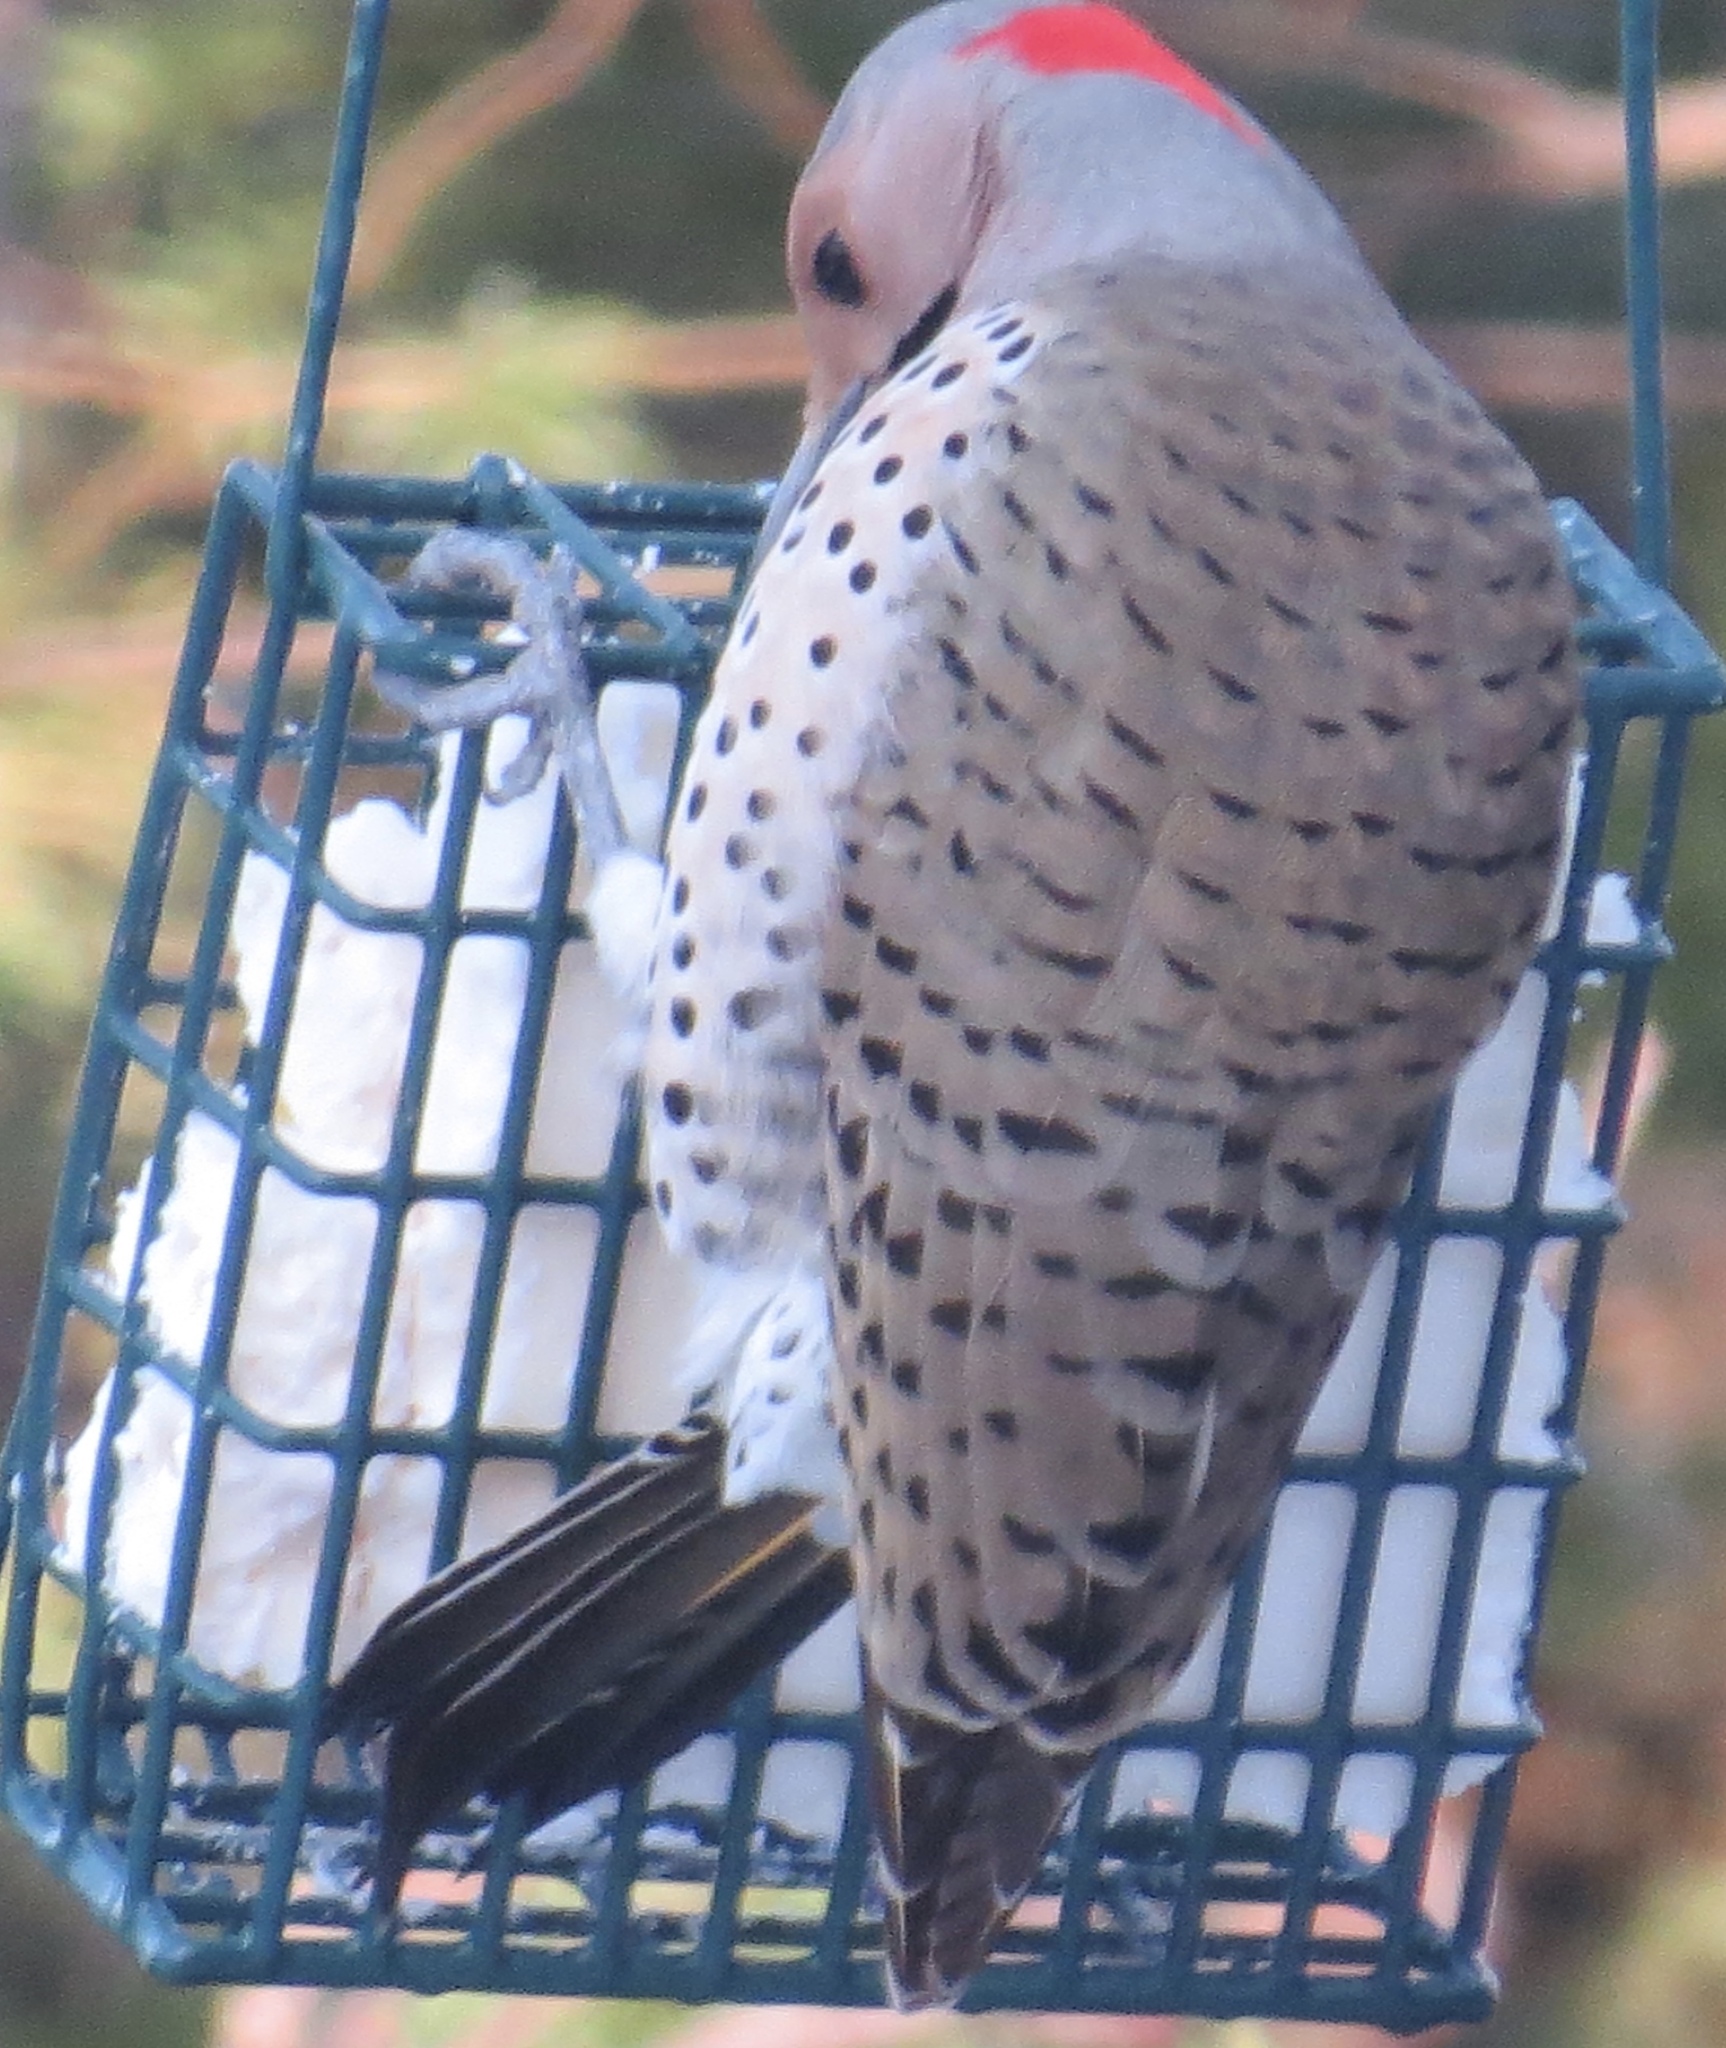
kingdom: Animalia
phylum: Chordata
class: Aves
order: Piciformes
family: Picidae
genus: Colaptes
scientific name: Colaptes auratus
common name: Northern flicker
